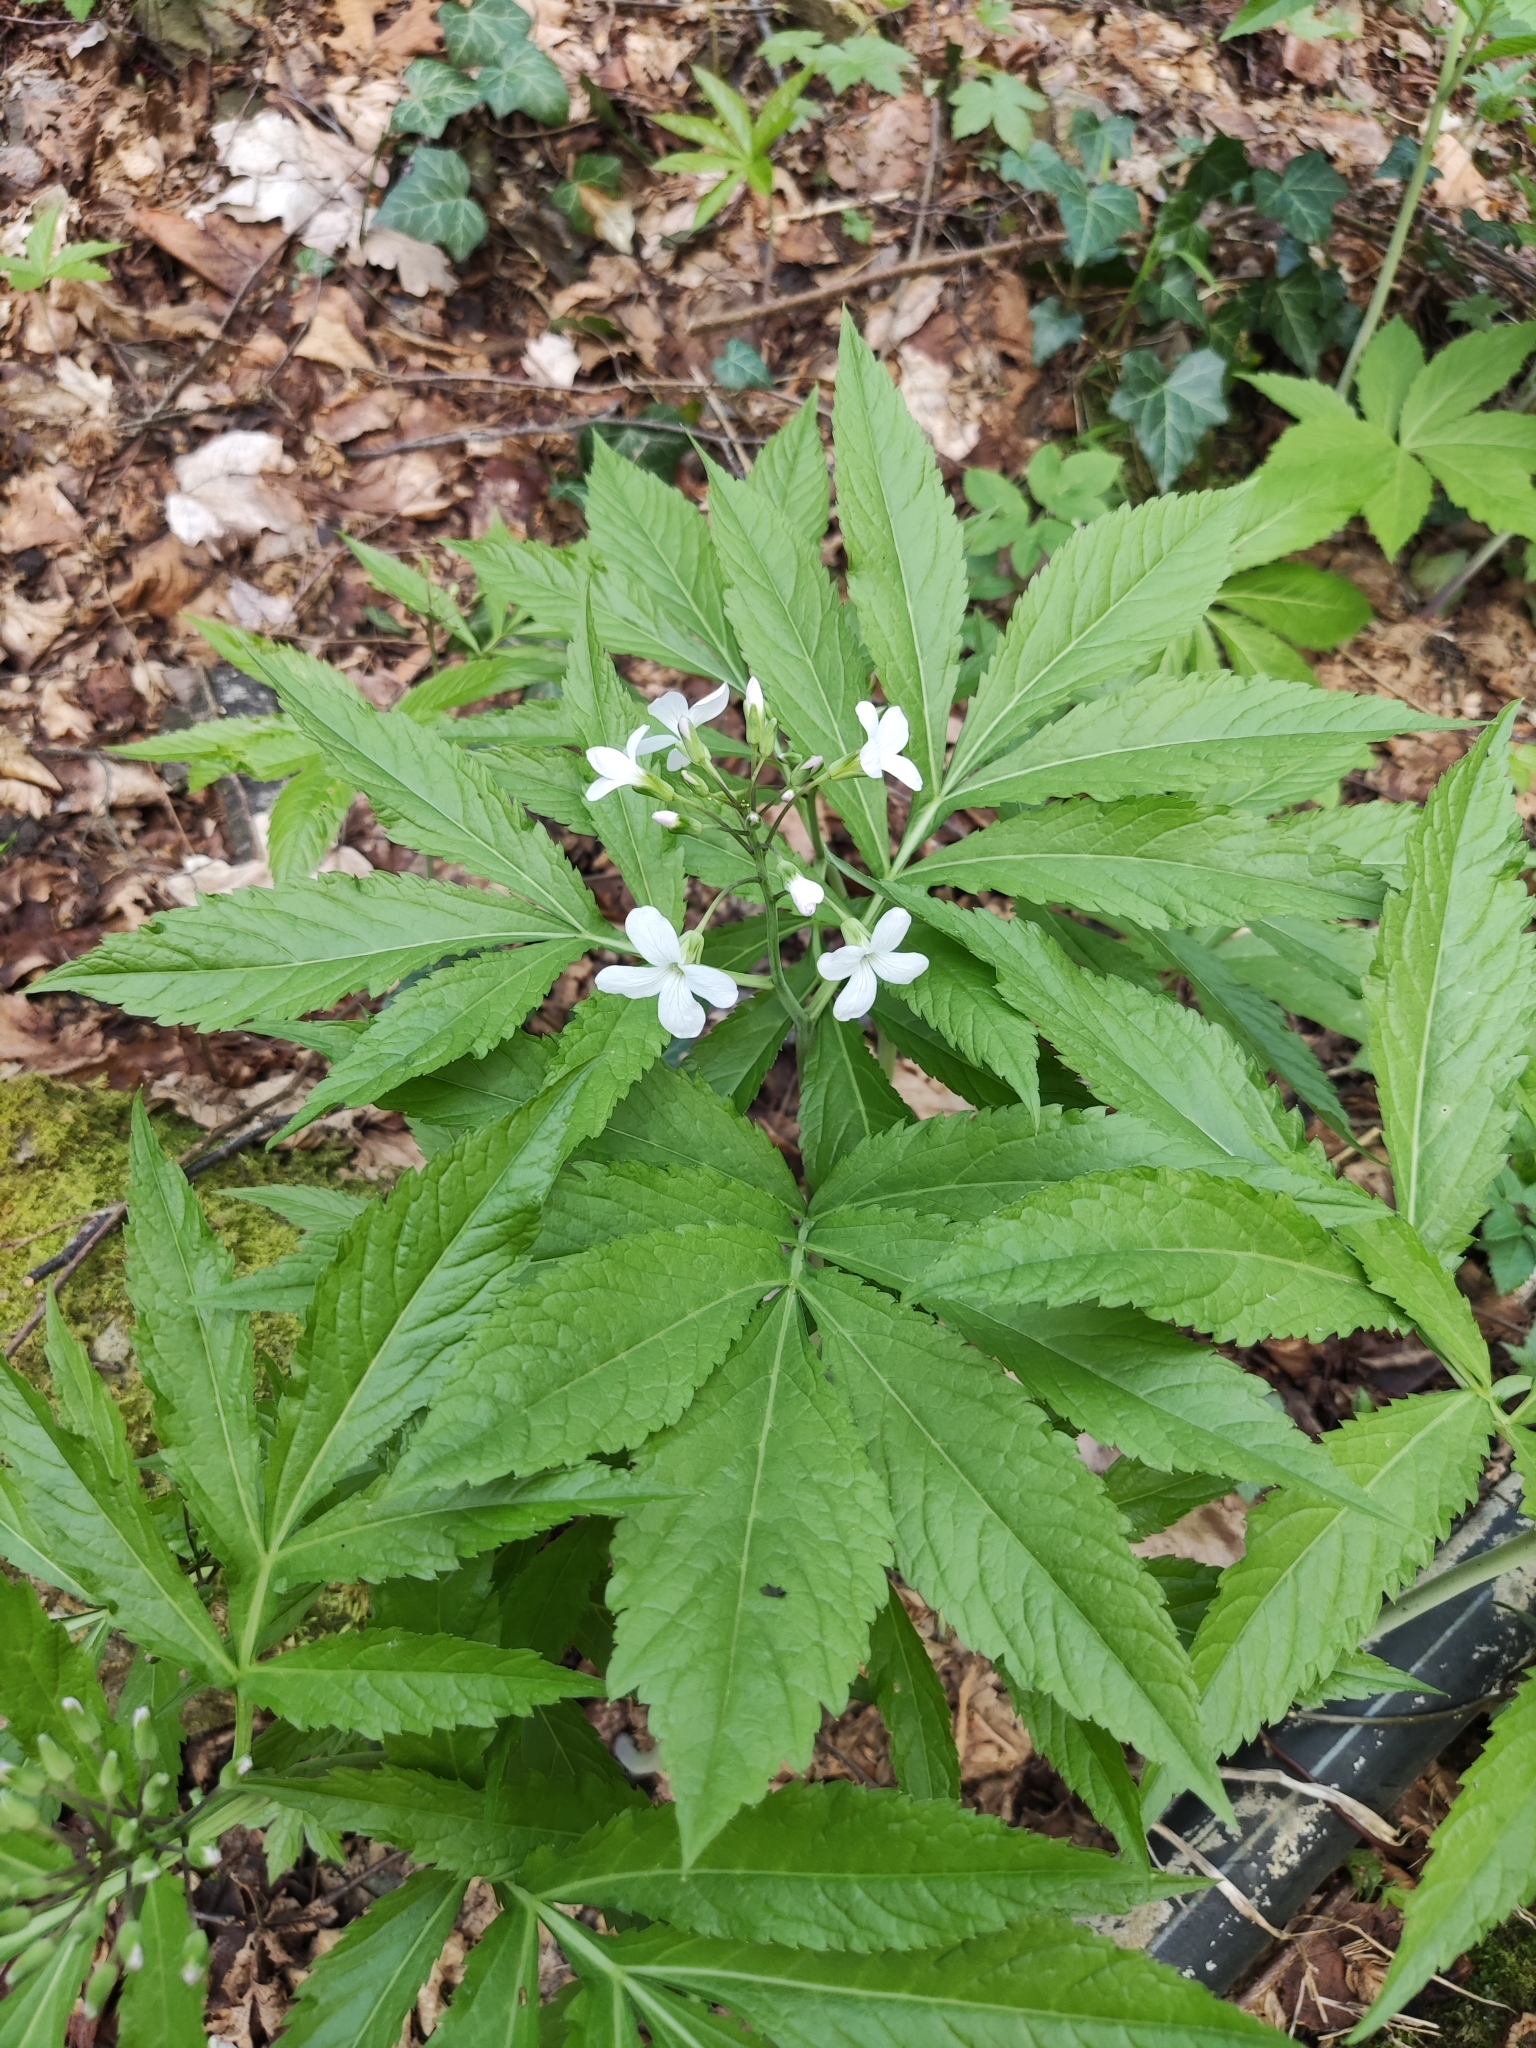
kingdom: Plantae
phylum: Tracheophyta
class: Magnoliopsida
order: Brassicales
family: Brassicaceae
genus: Cardamine
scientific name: Cardamine heptaphylla
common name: Pinnate coralroot
